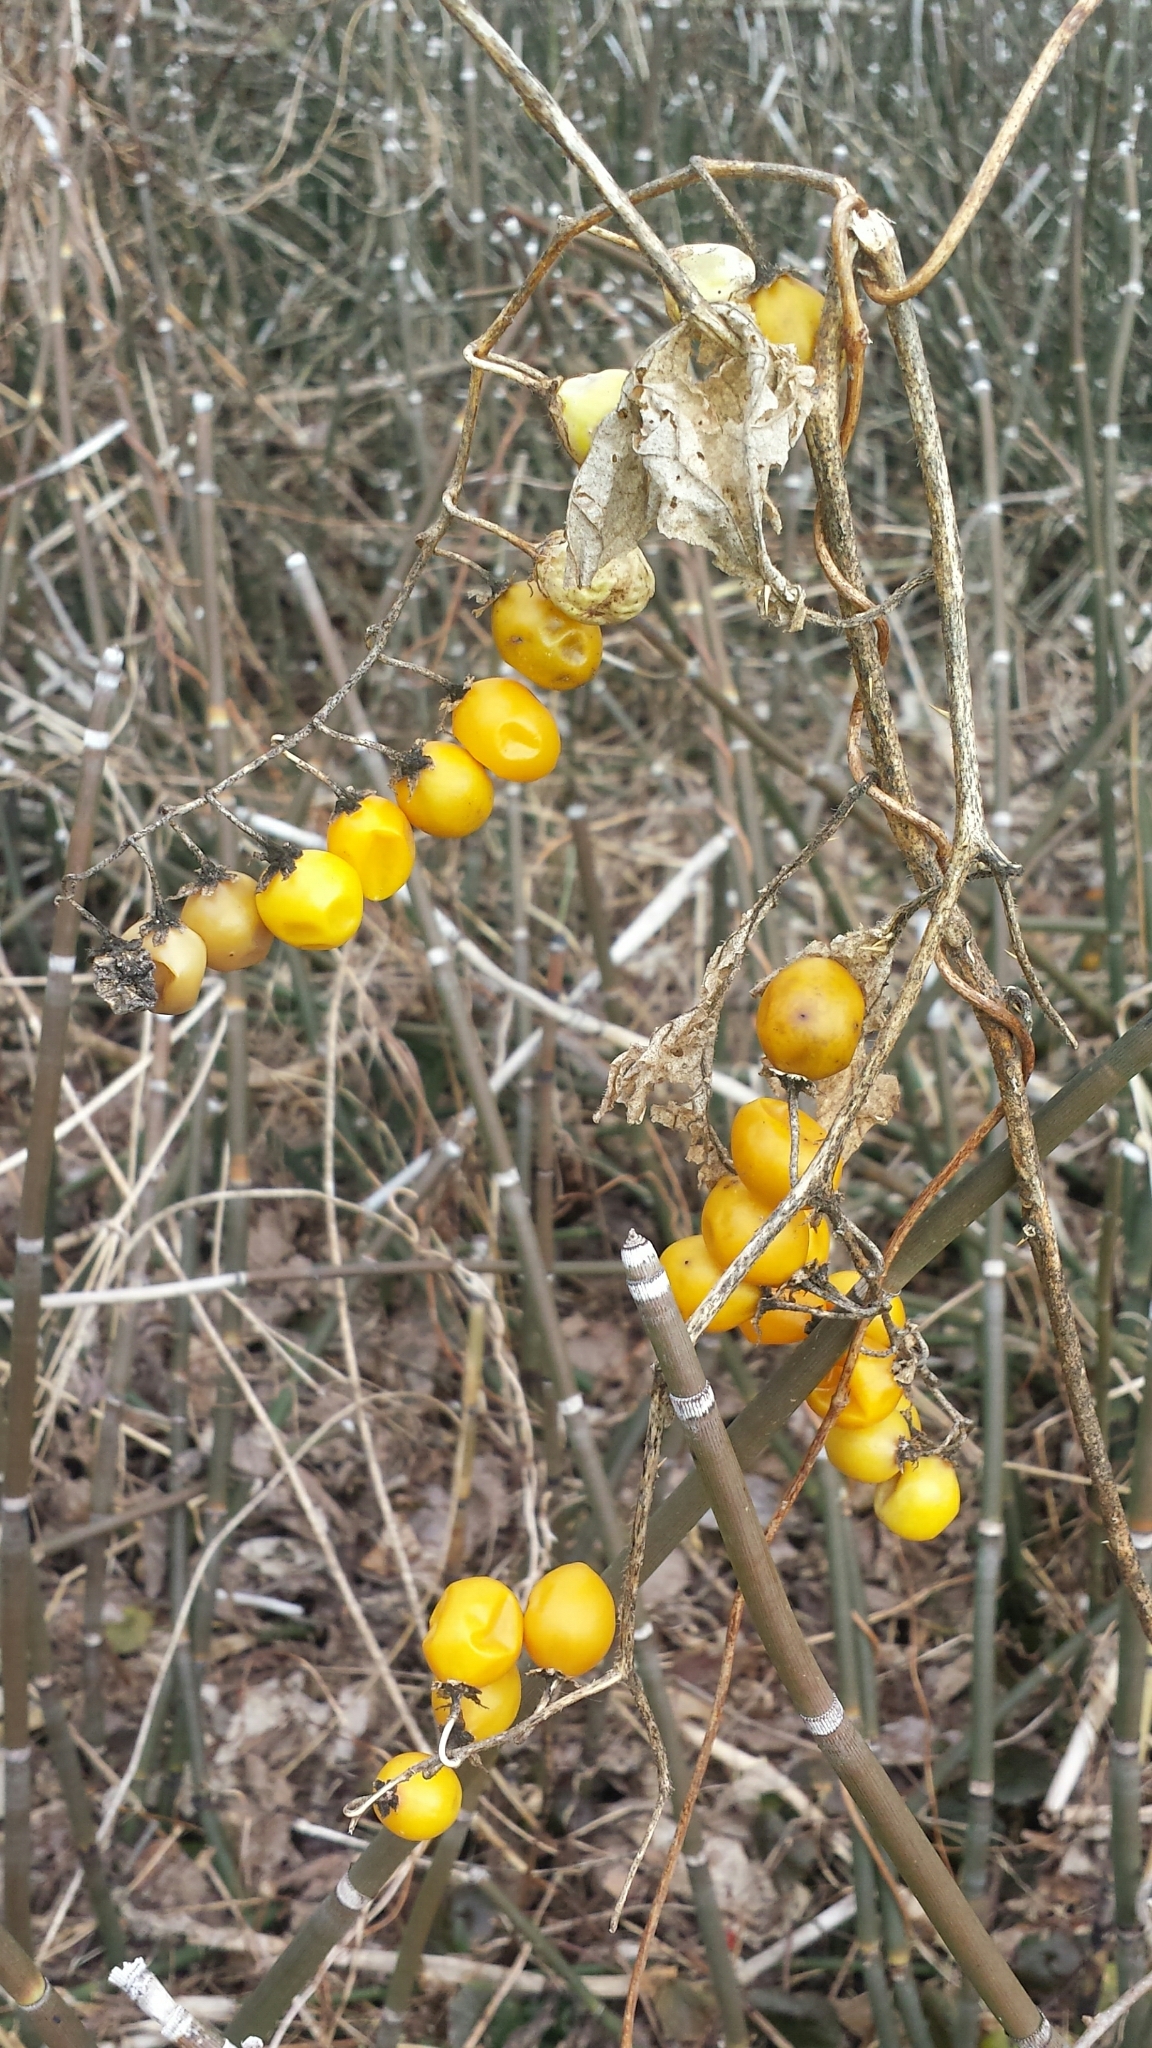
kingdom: Plantae
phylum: Tracheophyta
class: Magnoliopsida
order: Solanales
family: Solanaceae
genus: Solanum
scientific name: Solanum carolinense
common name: Horse-nettle
